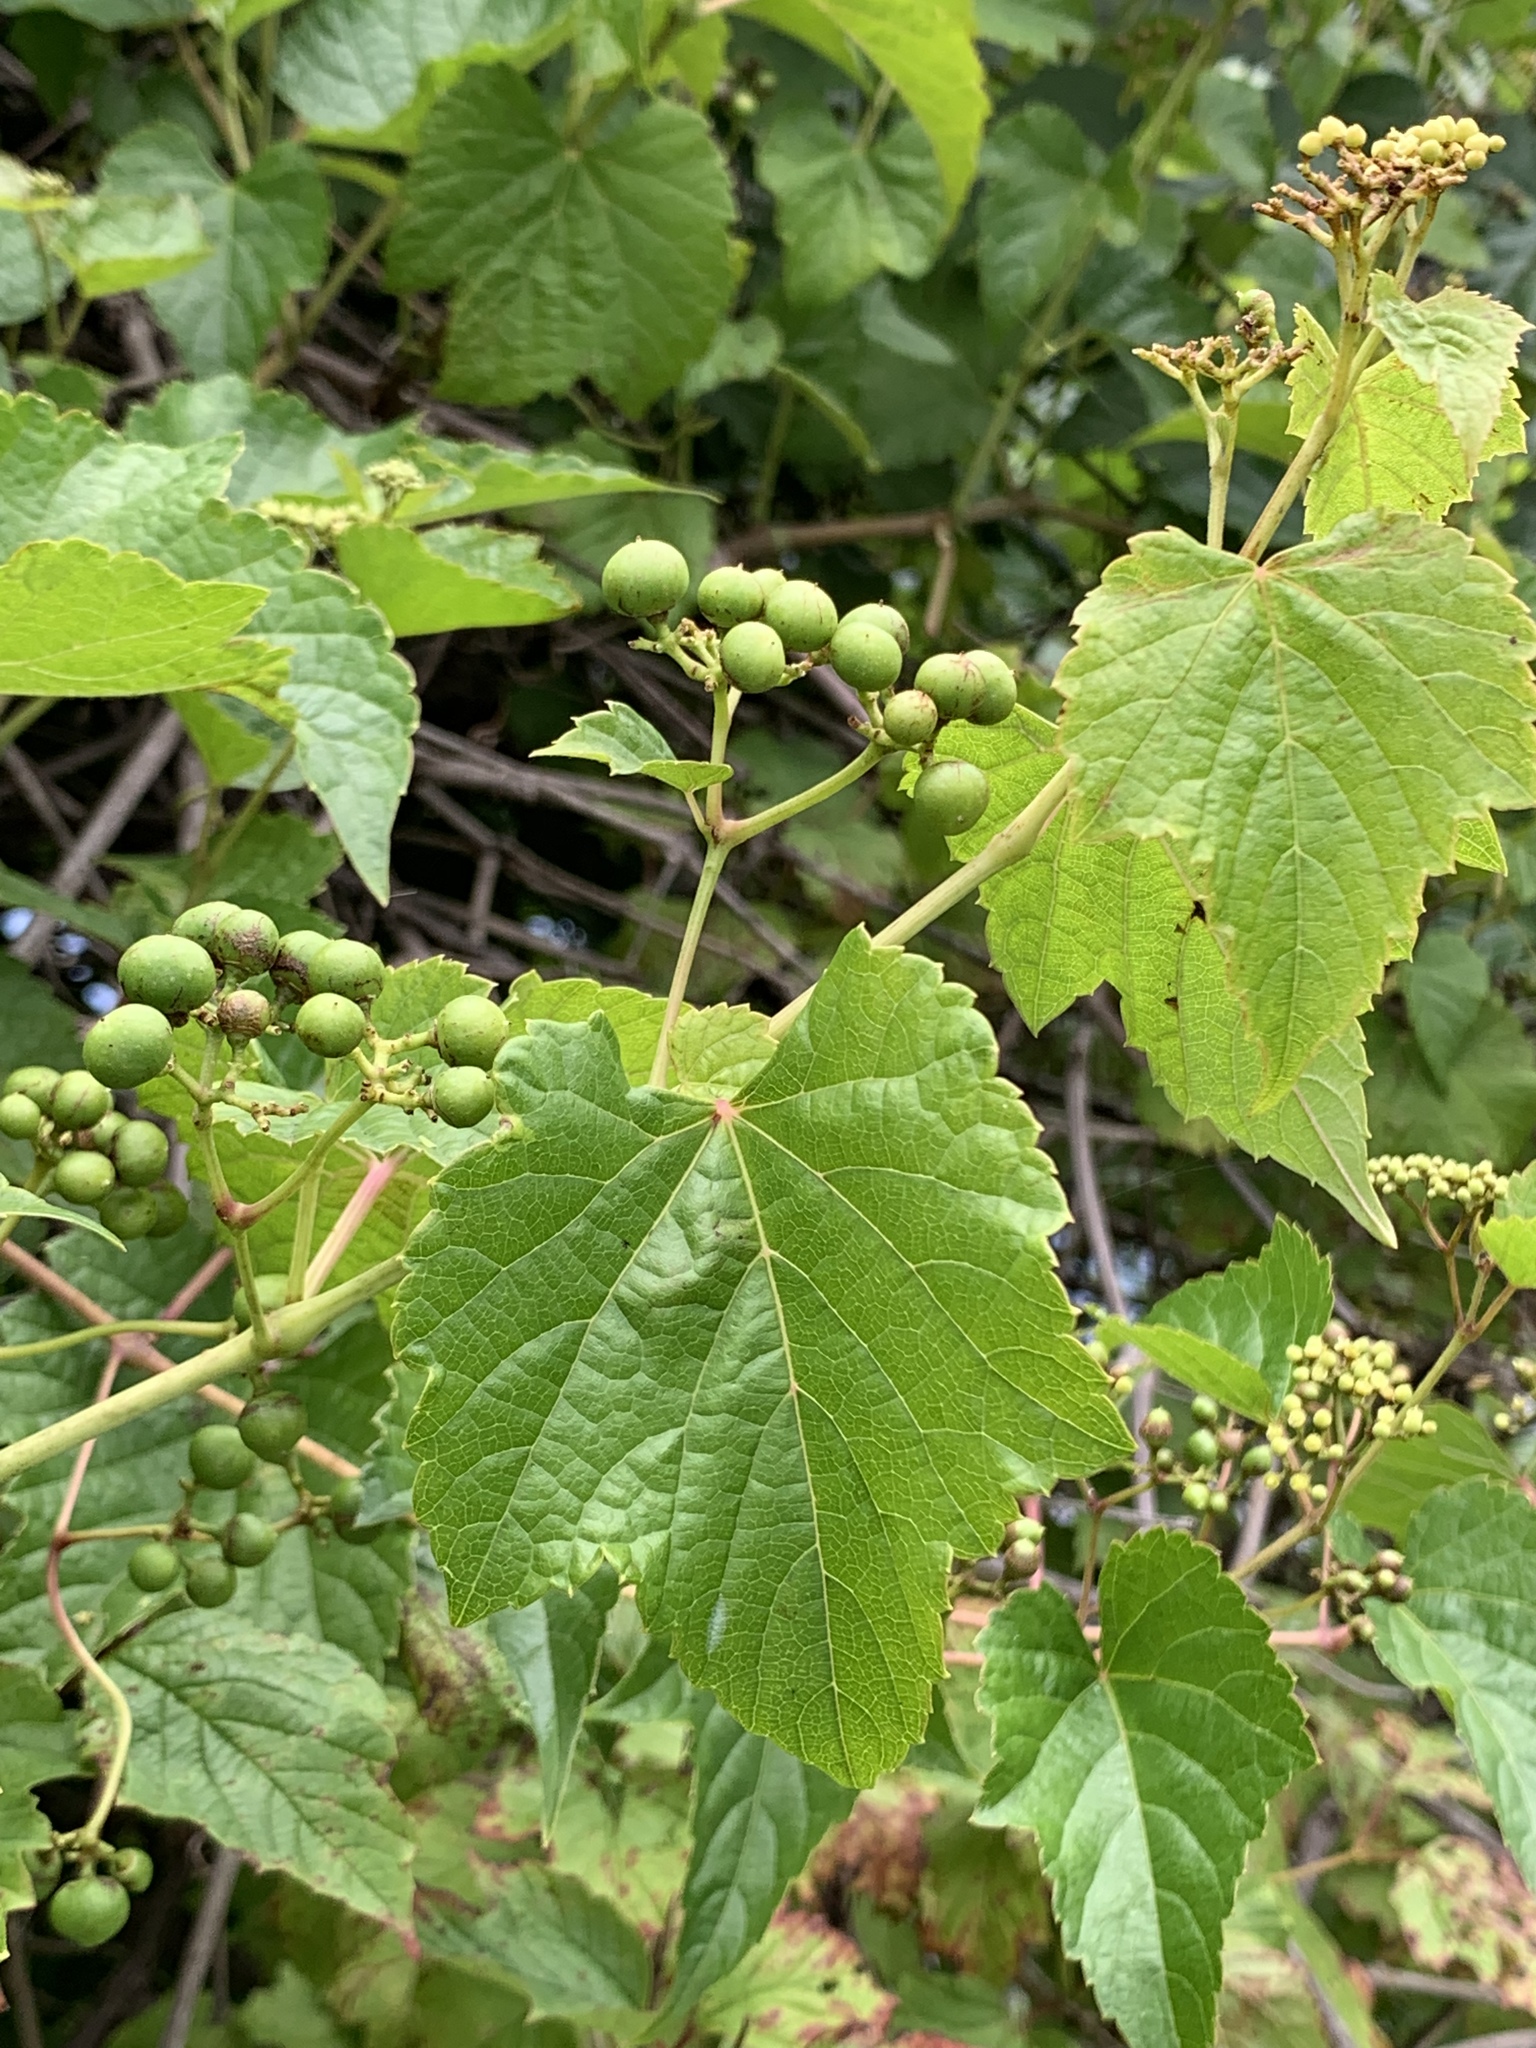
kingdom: Plantae
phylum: Tracheophyta
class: Magnoliopsida
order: Vitales
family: Vitaceae
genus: Ampelopsis
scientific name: Ampelopsis glandulosa
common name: Amur peppervine
